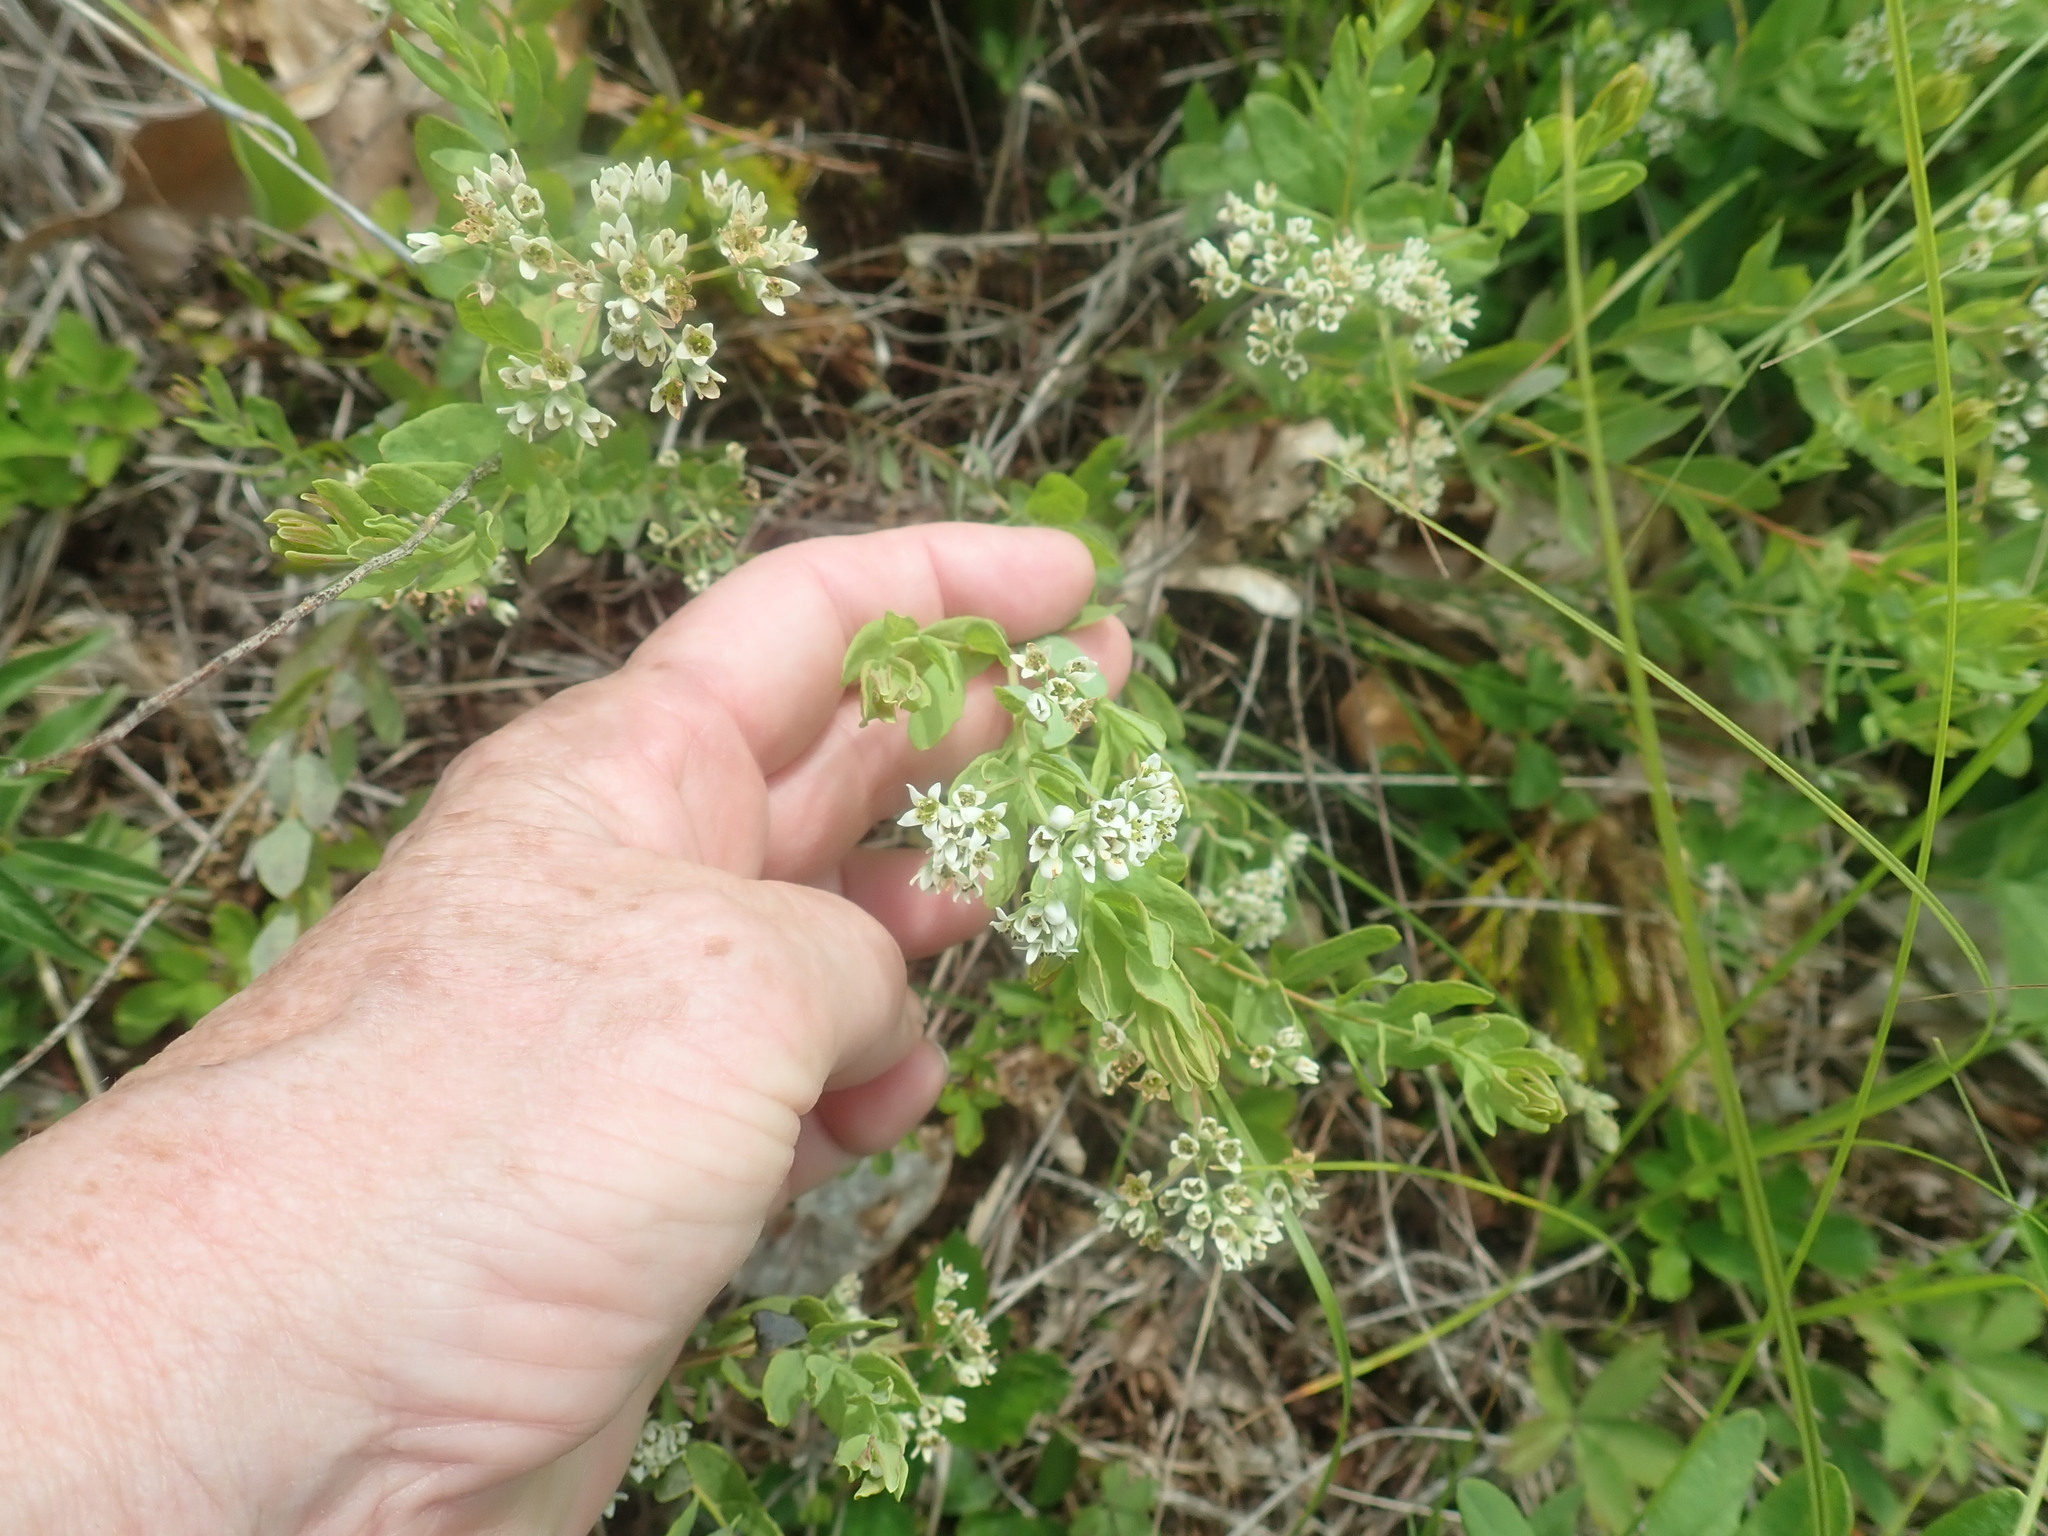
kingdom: Plantae
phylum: Tracheophyta
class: Magnoliopsida
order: Santalales
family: Comandraceae
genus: Comandra
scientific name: Comandra umbellata
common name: Bastard toadflax
